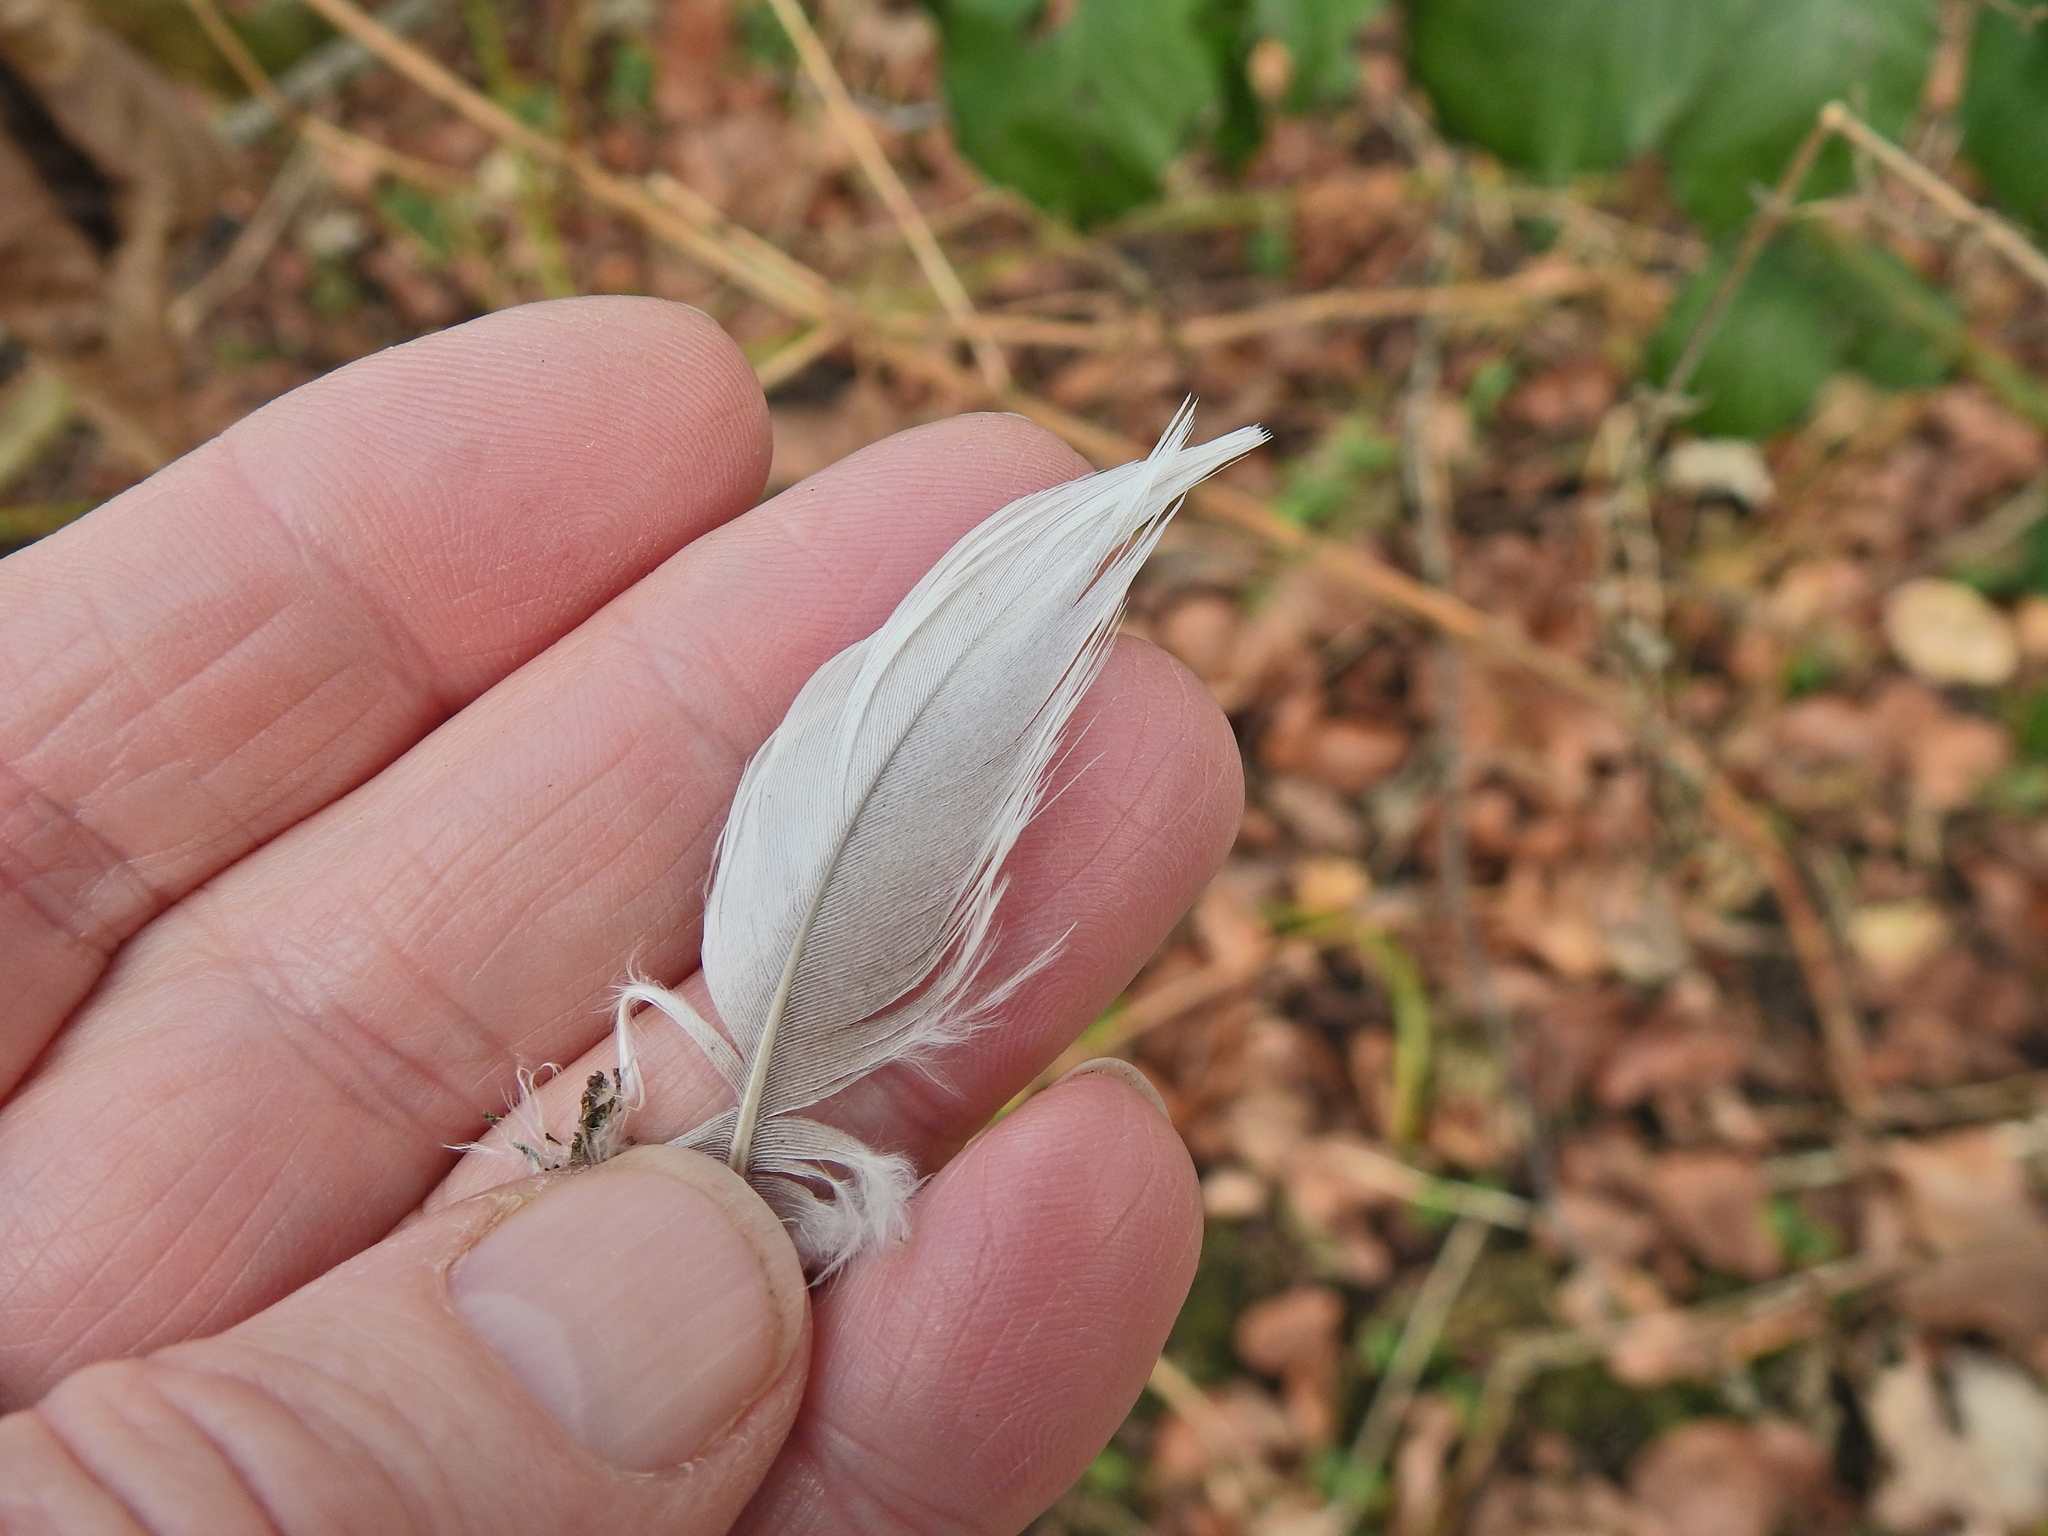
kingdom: Animalia
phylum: Chordata
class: Aves
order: Columbiformes
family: Columbidae
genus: Columba
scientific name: Columba palumbus
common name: Common wood pigeon
